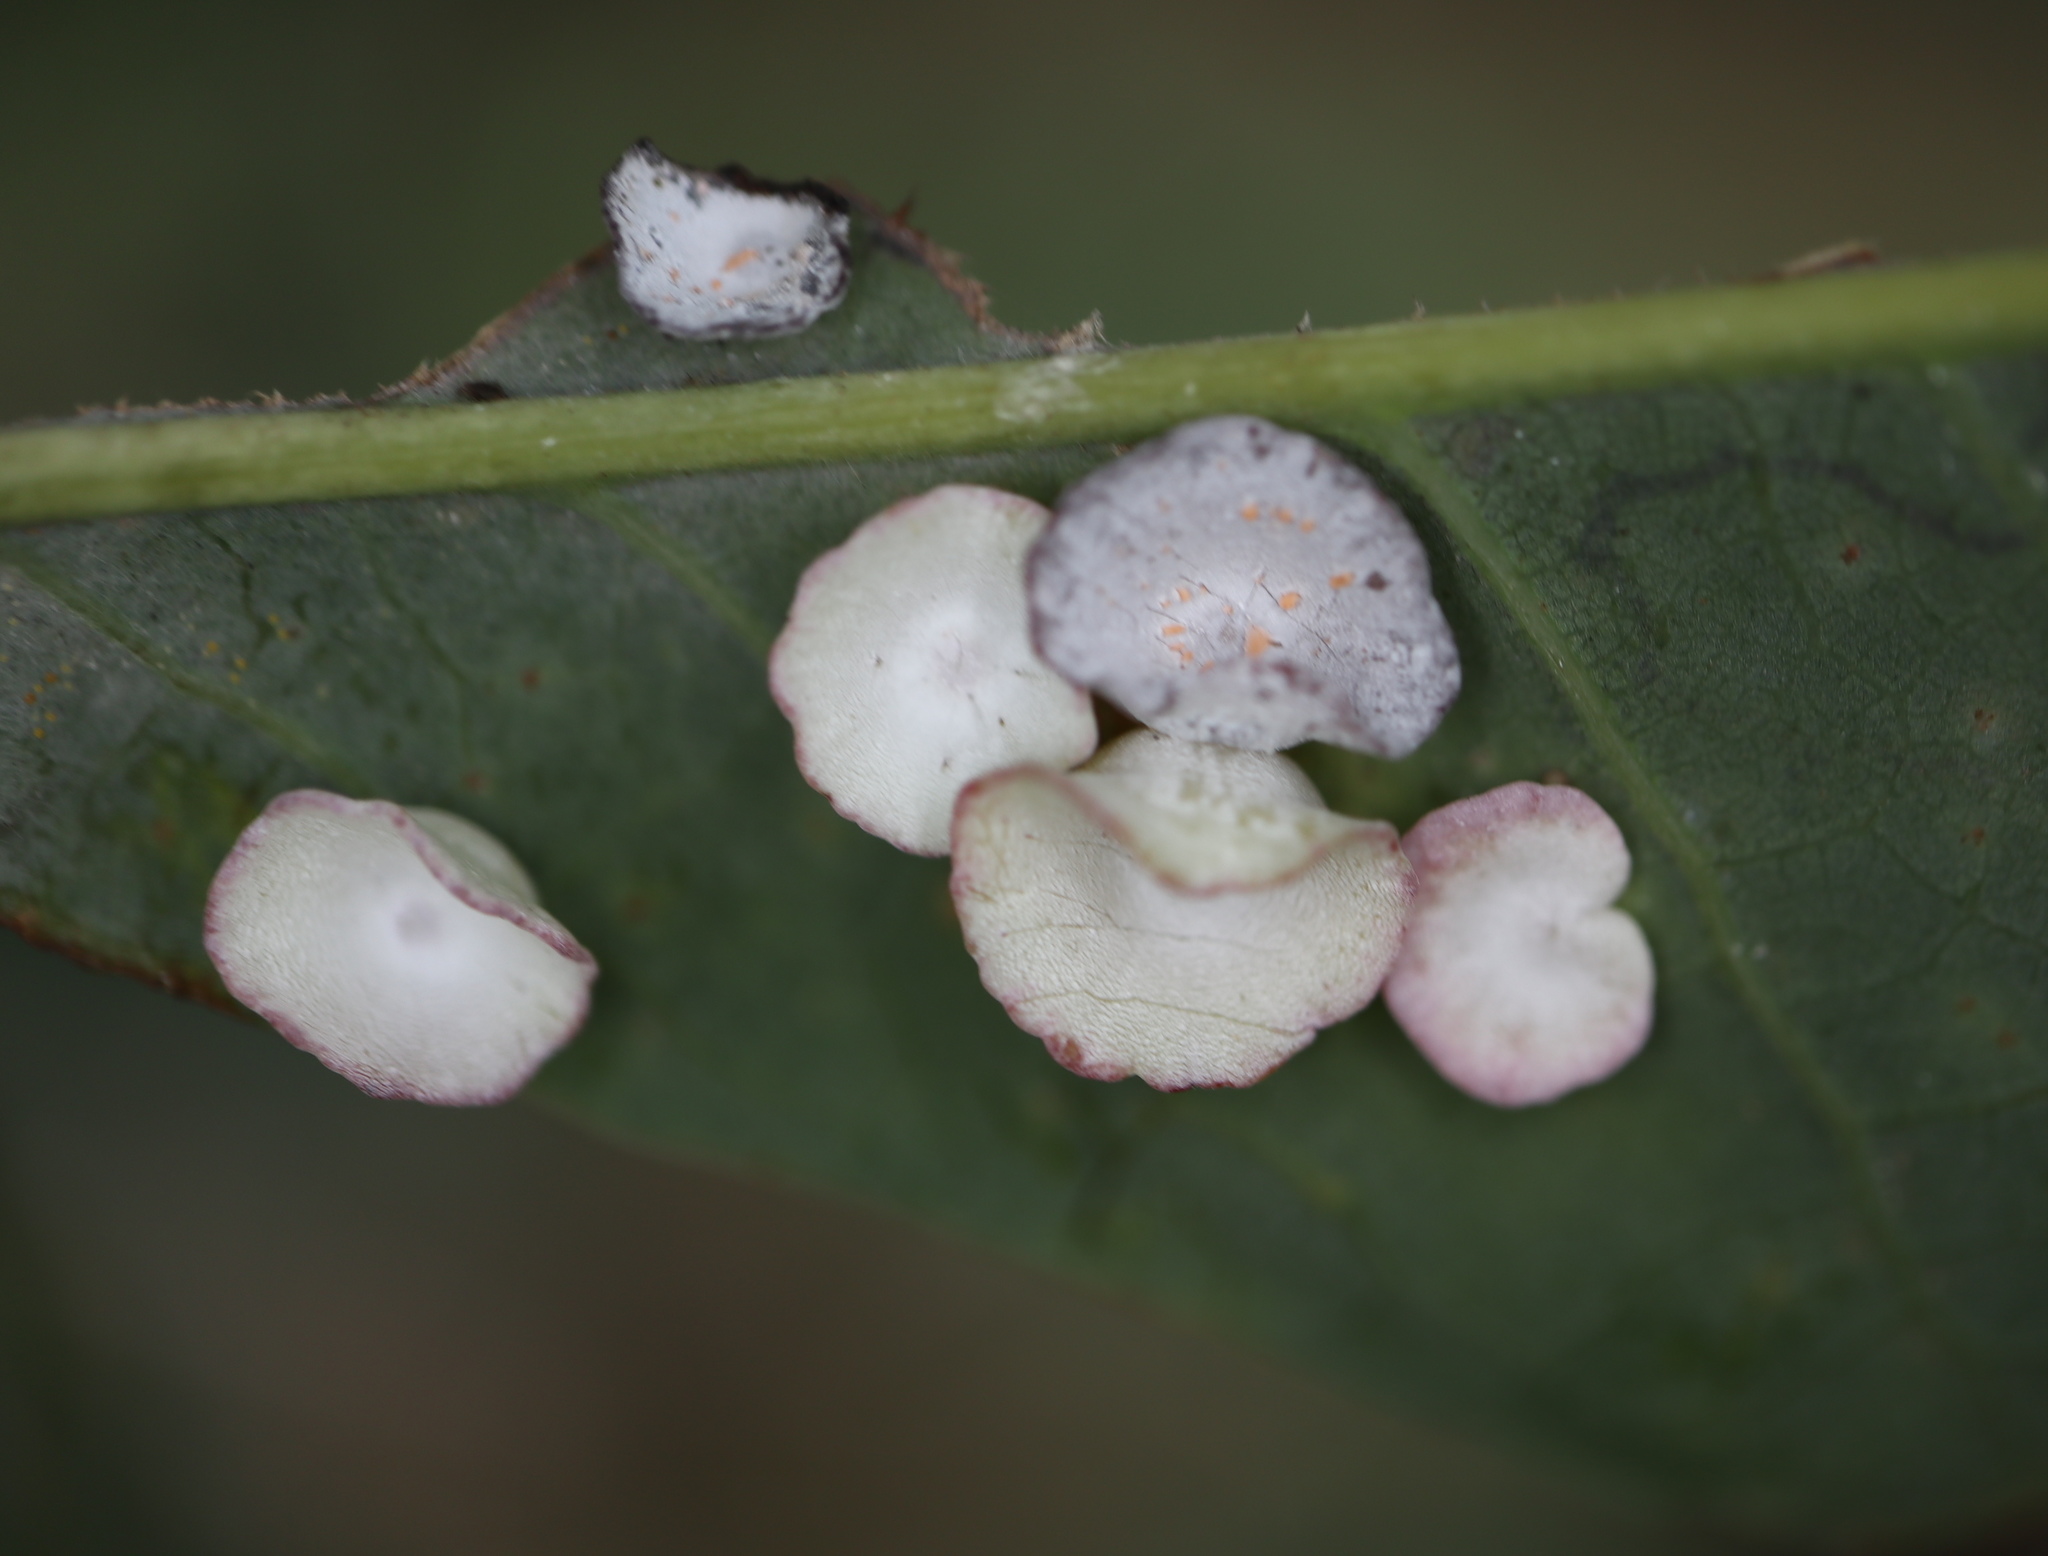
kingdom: Animalia
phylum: Arthropoda
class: Insecta
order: Hymenoptera
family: Cynipidae
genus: Phylloteras
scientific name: Phylloteras poculum
